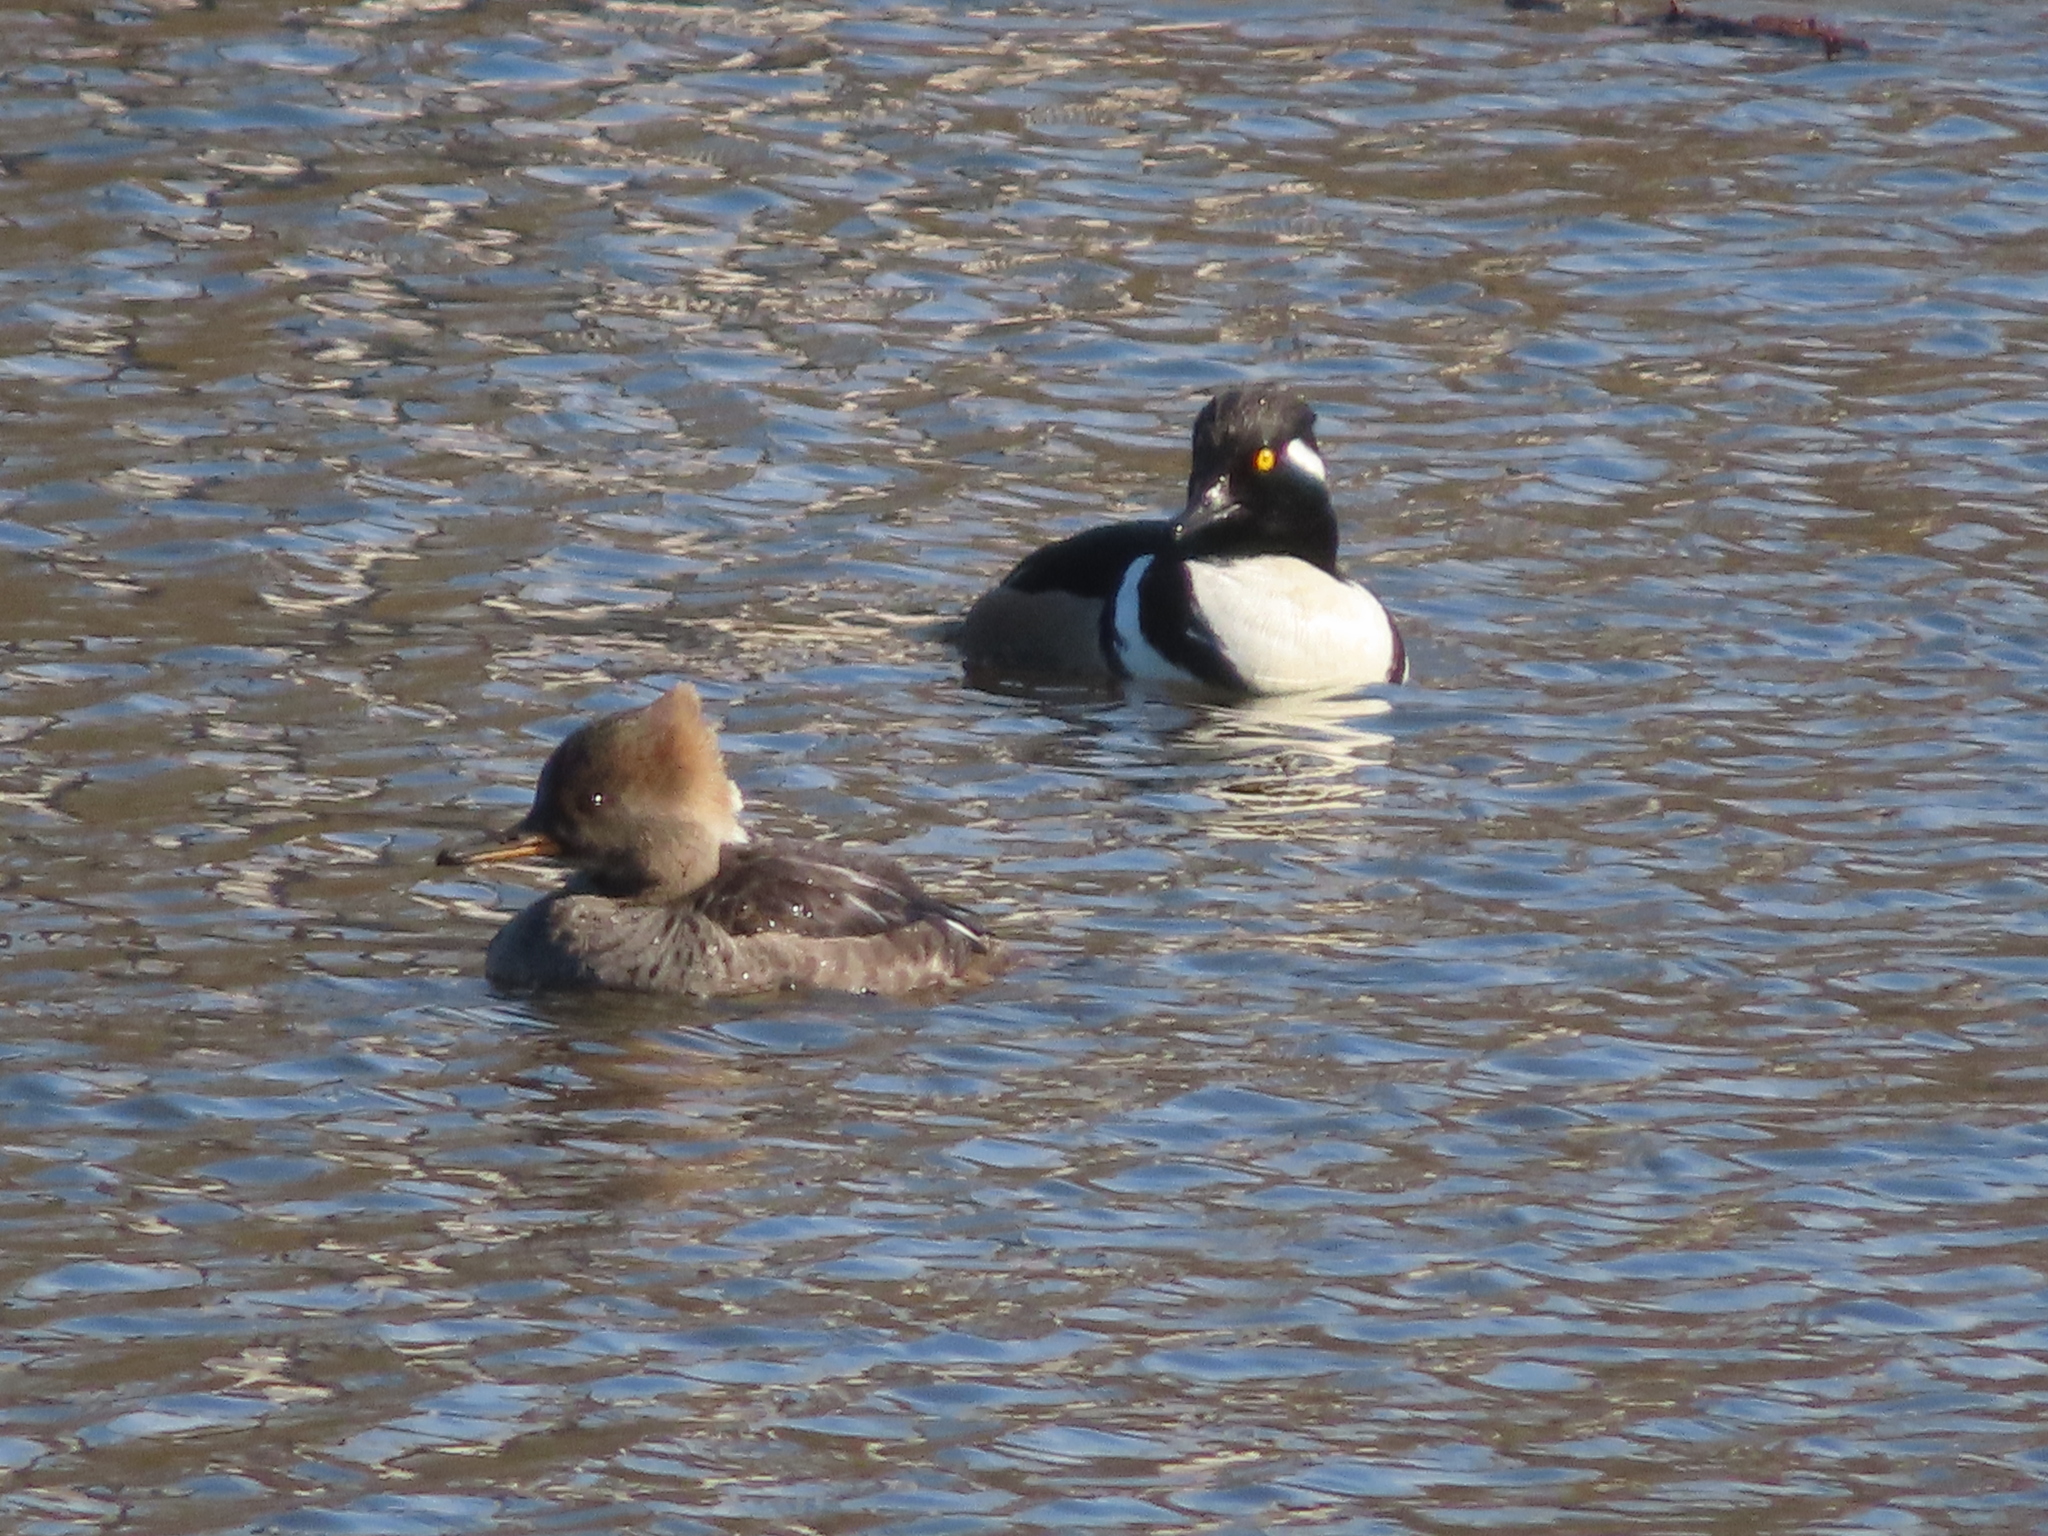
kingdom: Animalia
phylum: Chordata
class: Aves
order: Anseriformes
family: Anatidae
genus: Lophodytes
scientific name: Lophodytes cucullatus
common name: Hooded merganser
